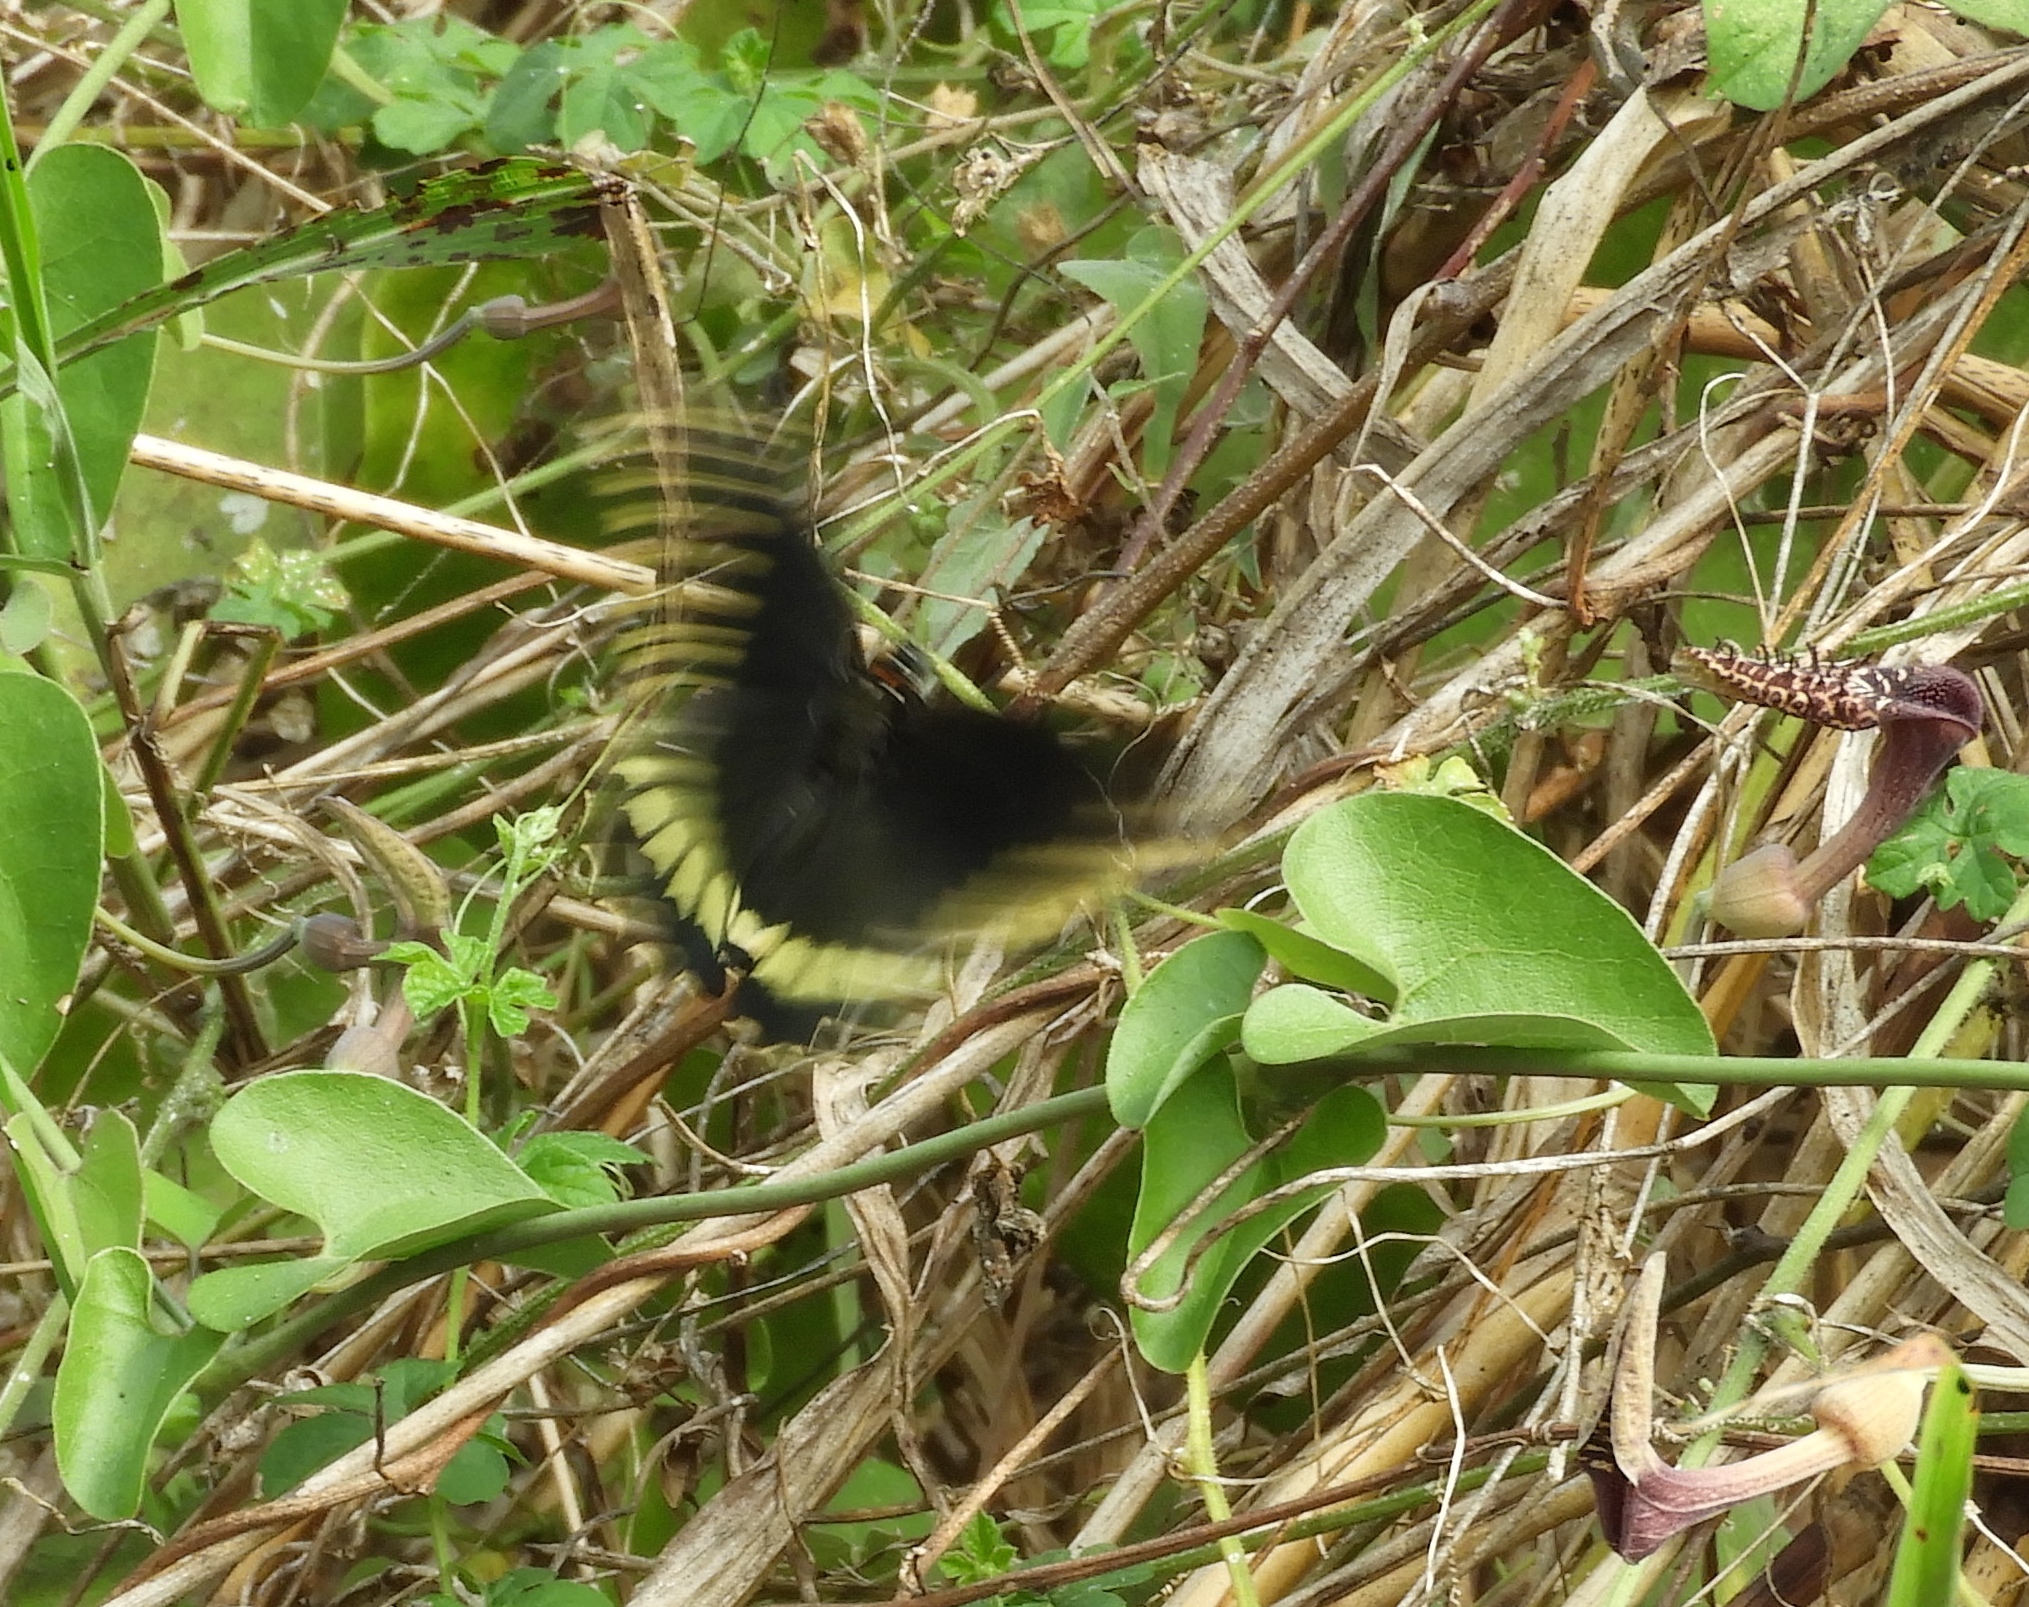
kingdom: Animalia
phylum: Arthropoda
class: Insecta
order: Lepidoptera
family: Papilionidae
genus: Battus
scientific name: Battus polydamas
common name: Polydamas swallowtail
